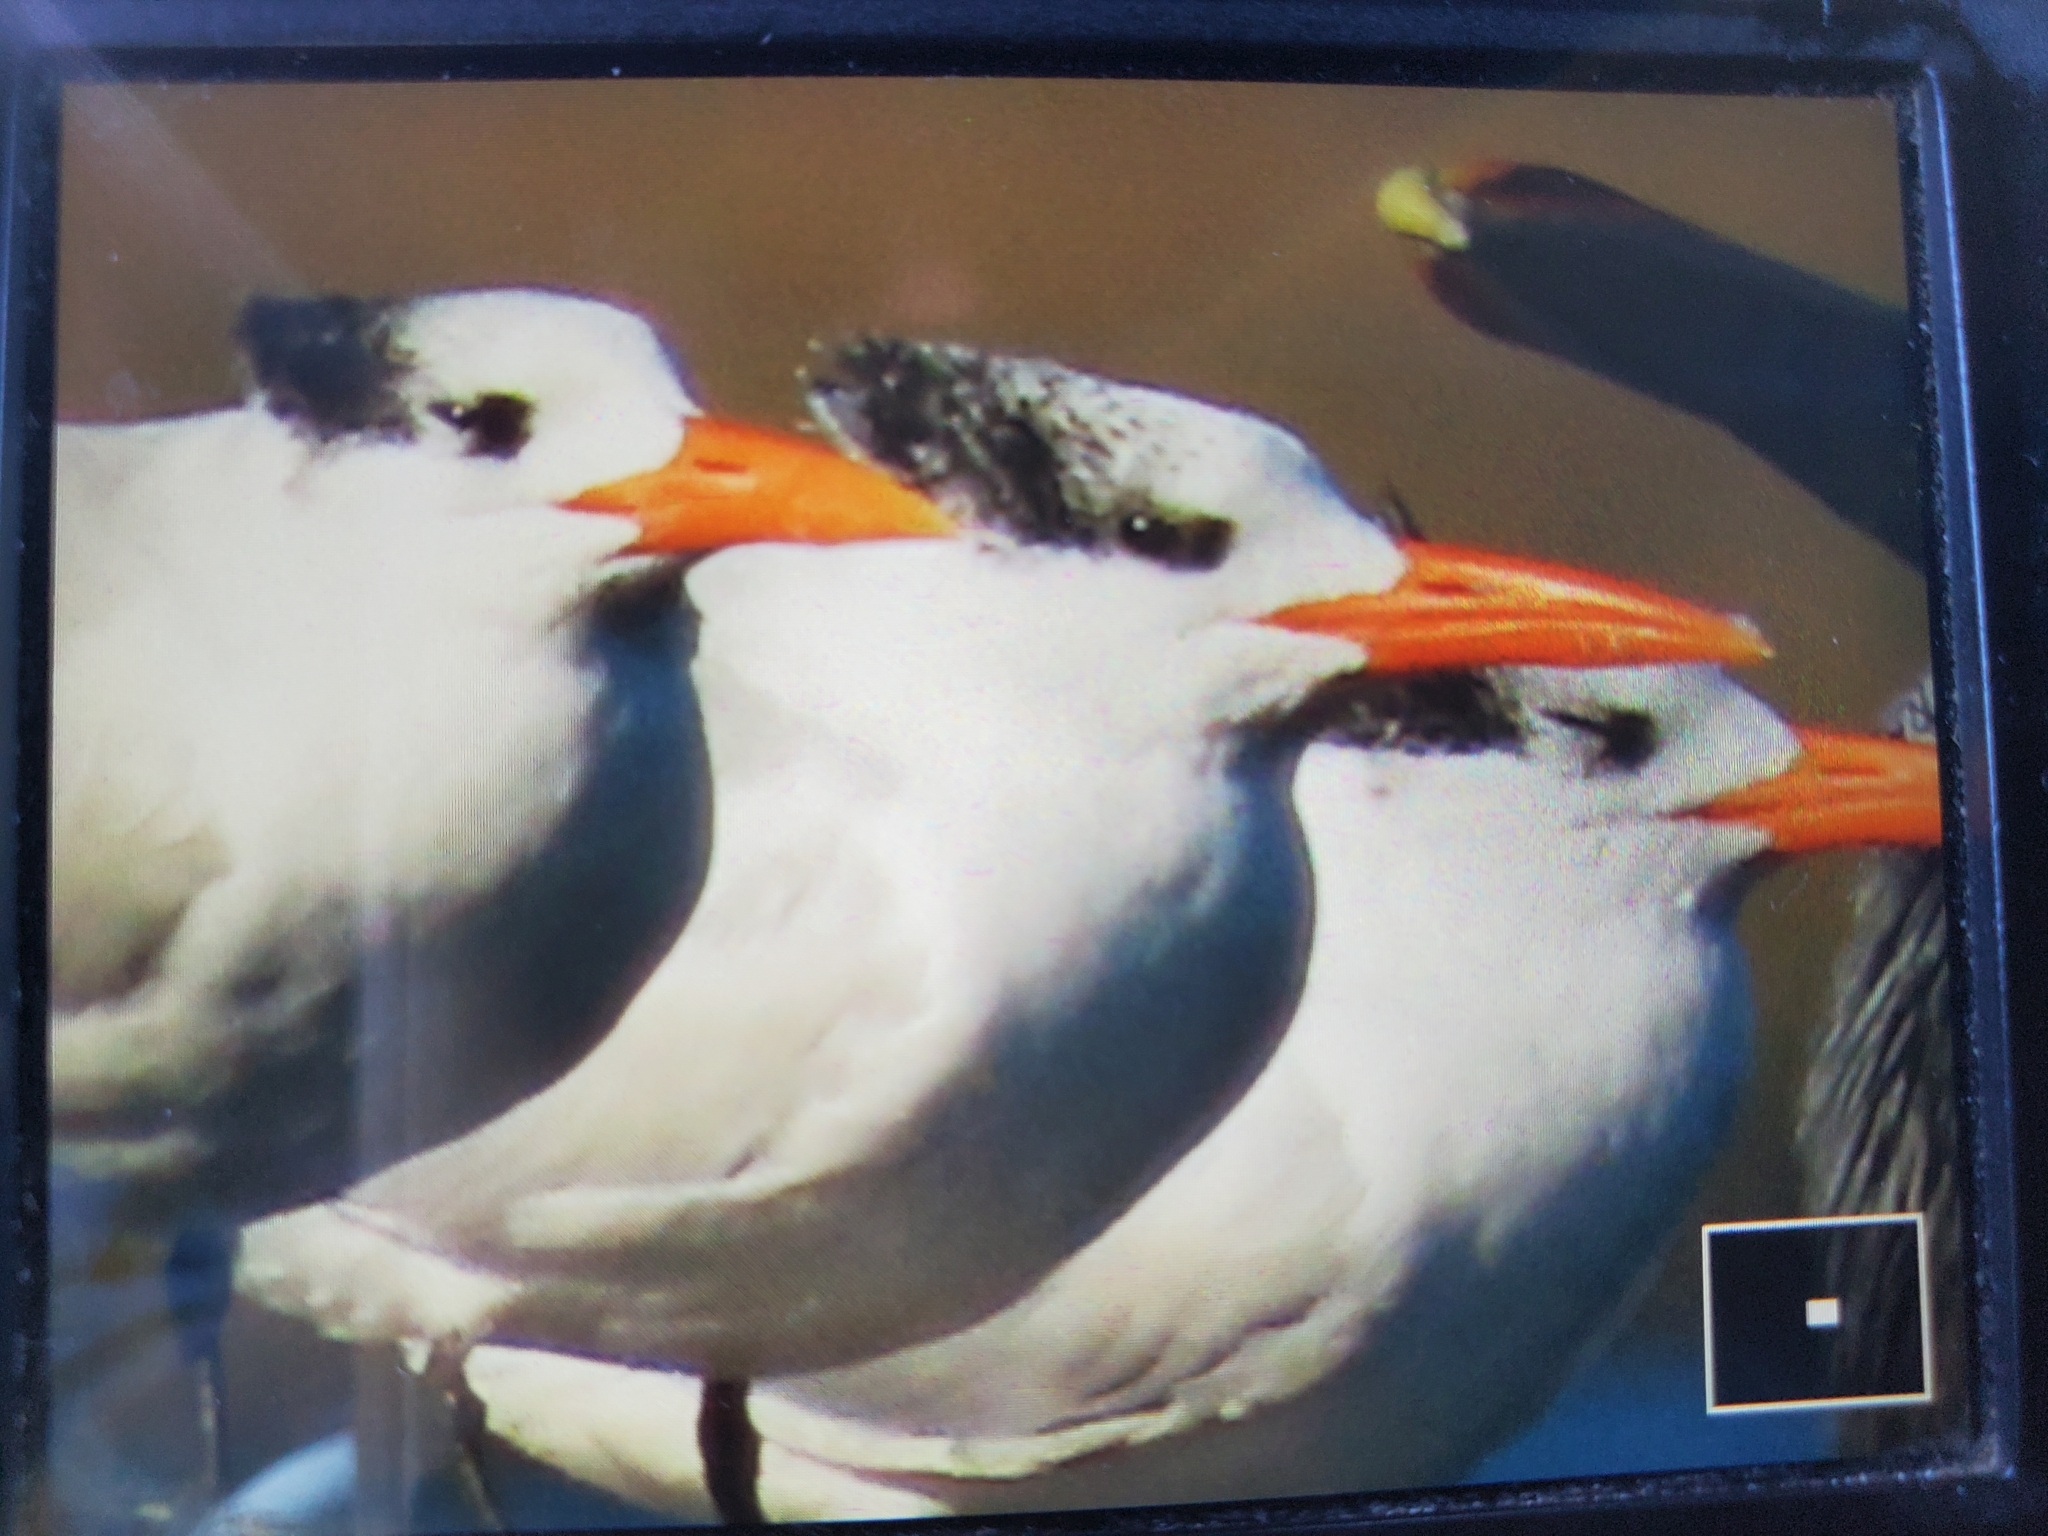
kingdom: Animalia
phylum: Chordata
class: Aves
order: Charadriiformes
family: Laridae
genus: Thalasseus
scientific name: Thalasseus maximus
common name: Royal tern
